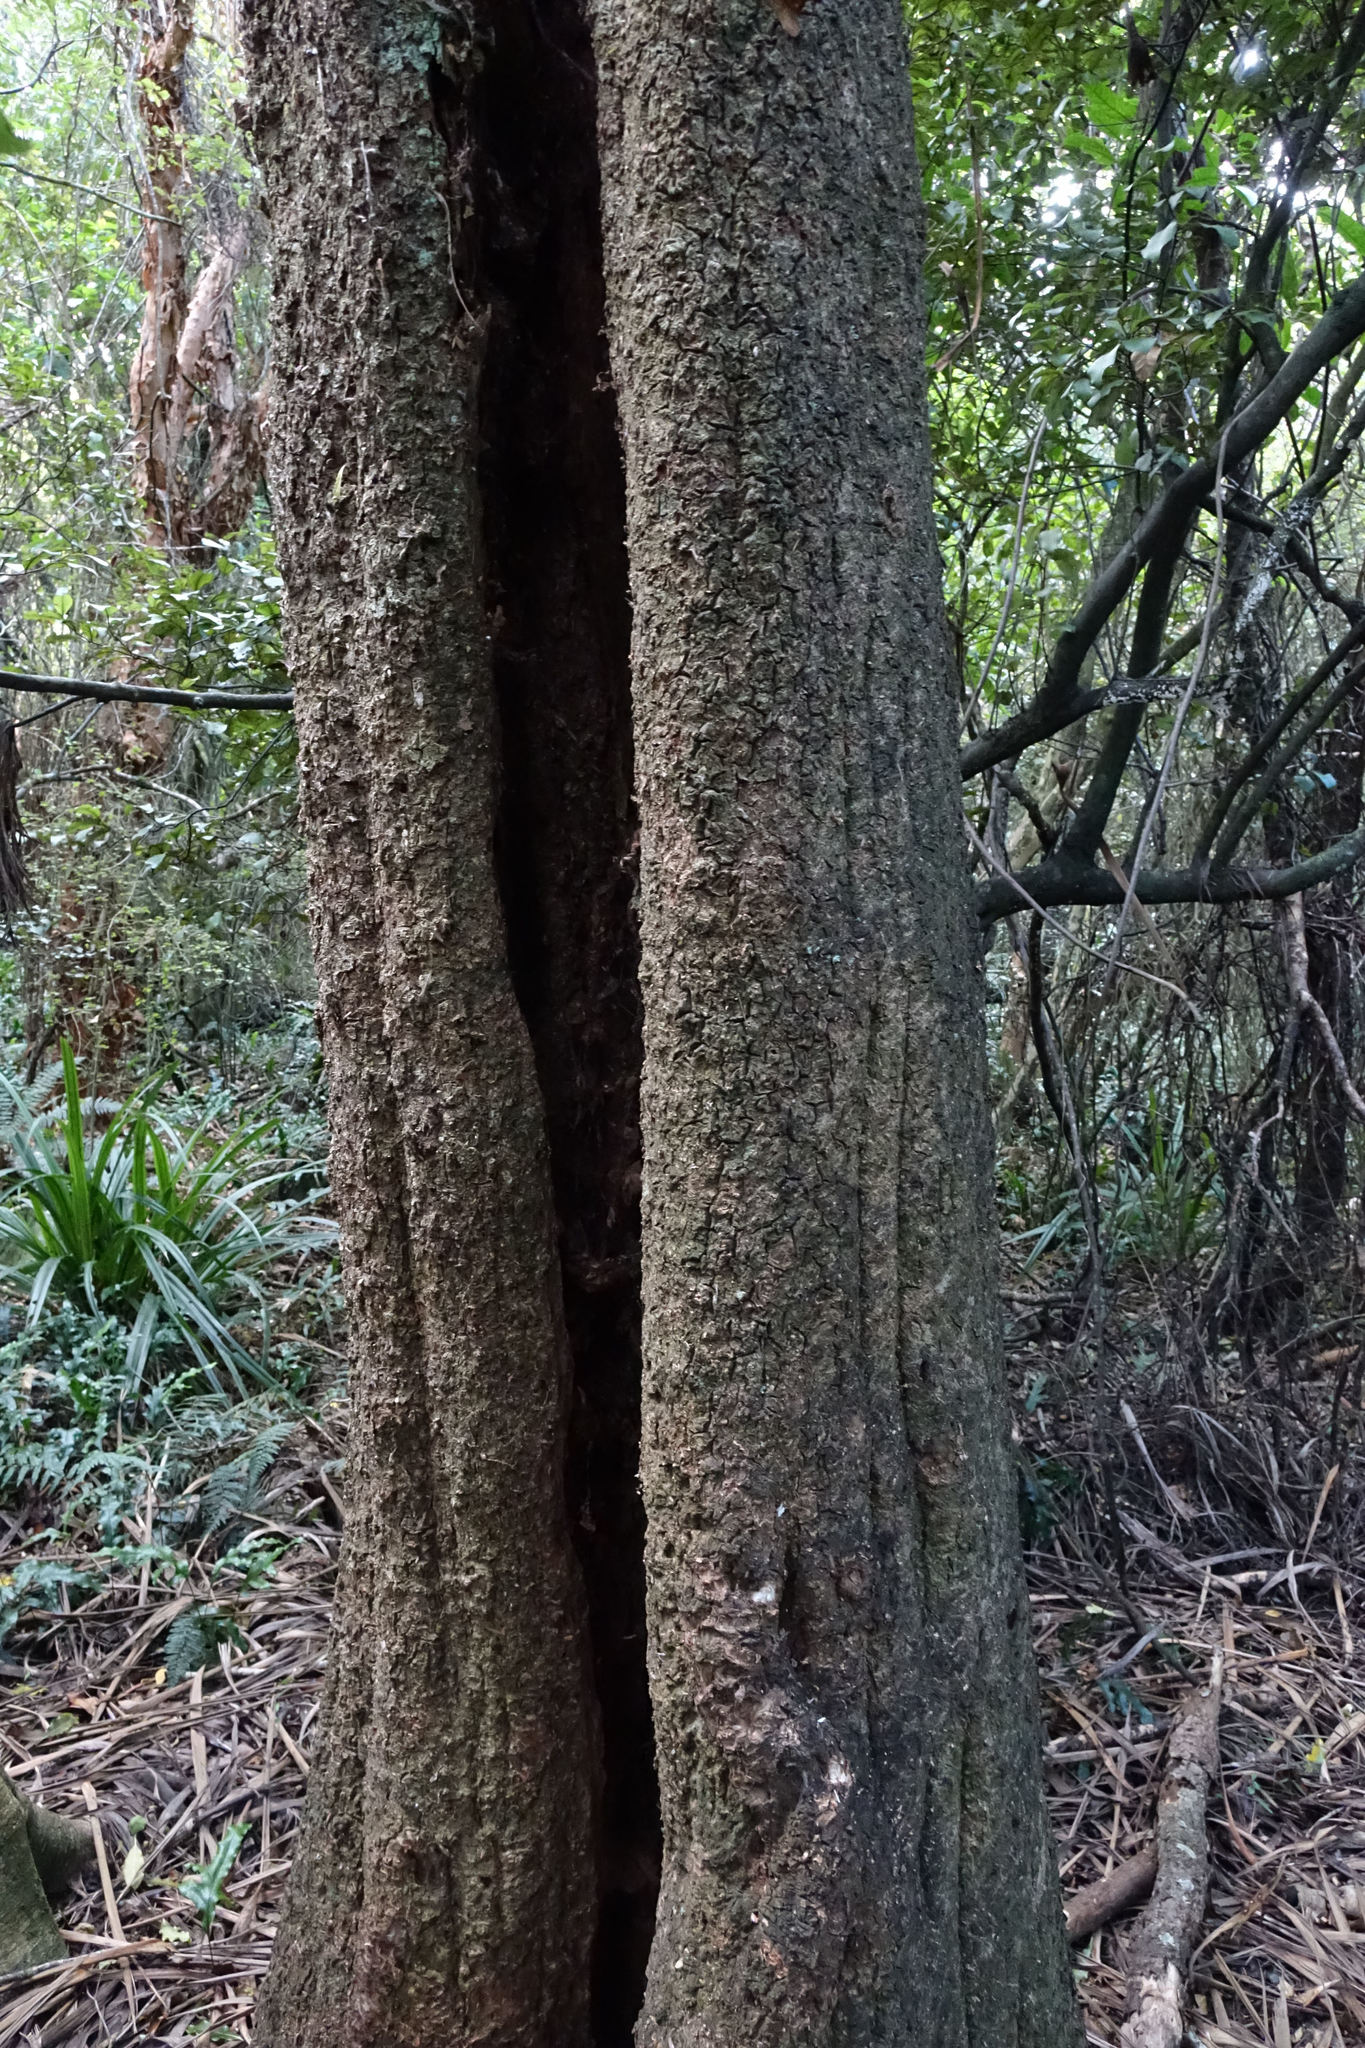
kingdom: Plantae
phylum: Tracheophyta
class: Liliopsida
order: Asparagales
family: Asparagaceae
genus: Cordyline
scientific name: Cordyline australis
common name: Cabbage-palm
